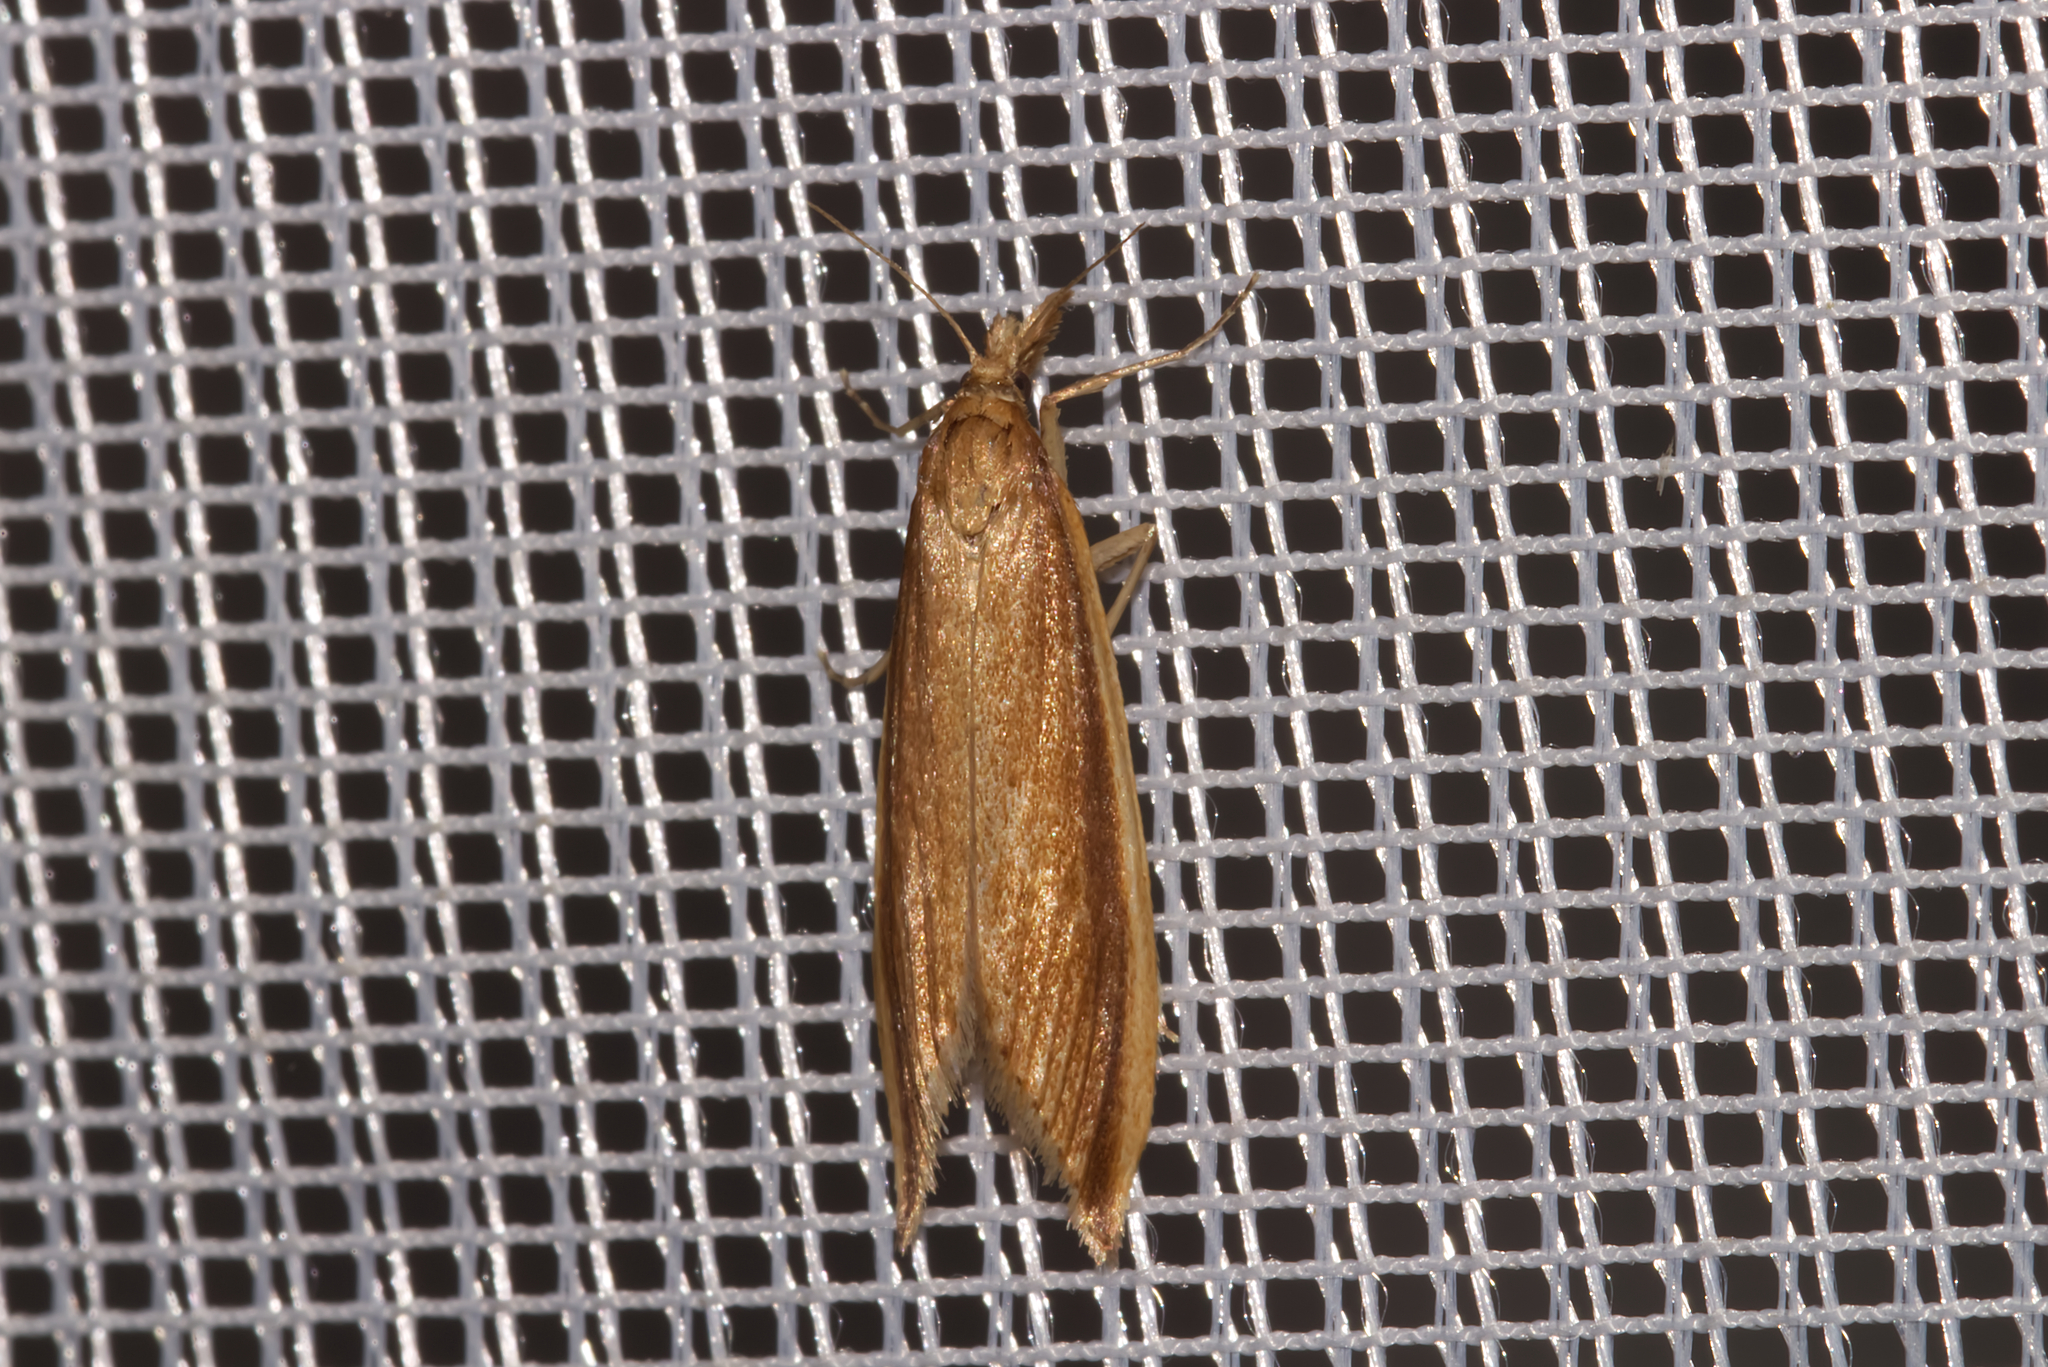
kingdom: Animalia
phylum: Arthropoda
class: Insecta
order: Lepidoptera
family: Crambidae
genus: Donacaula
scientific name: Donacaula mucronella
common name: Scarce water-veneer
